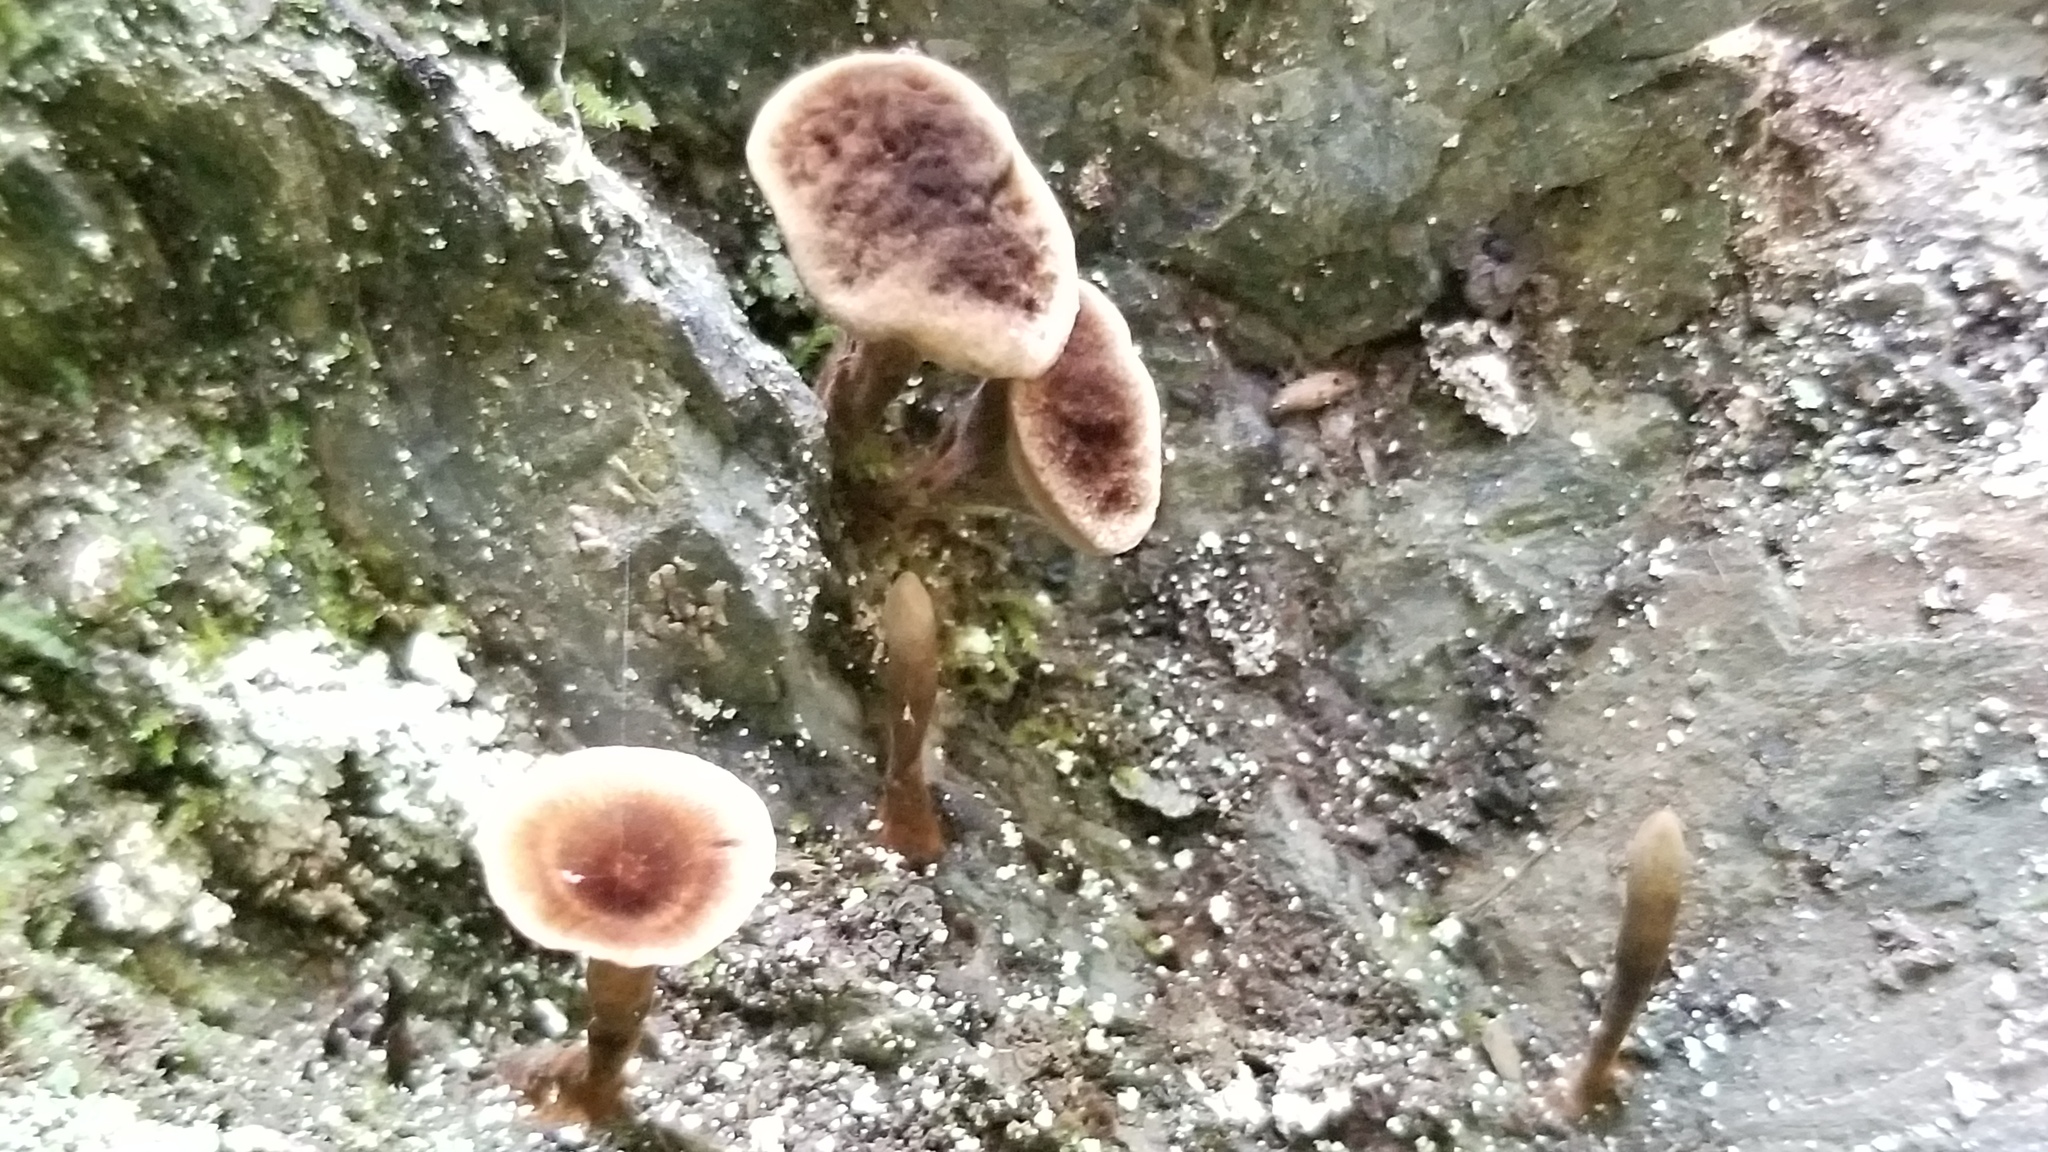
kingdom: Fungi
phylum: Basidiomycota
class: Agaricomycetes
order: Hymenochaetales
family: Hymenochaetaceae
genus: Coltricia
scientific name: Coltricia perennis
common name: Tiger's eye
